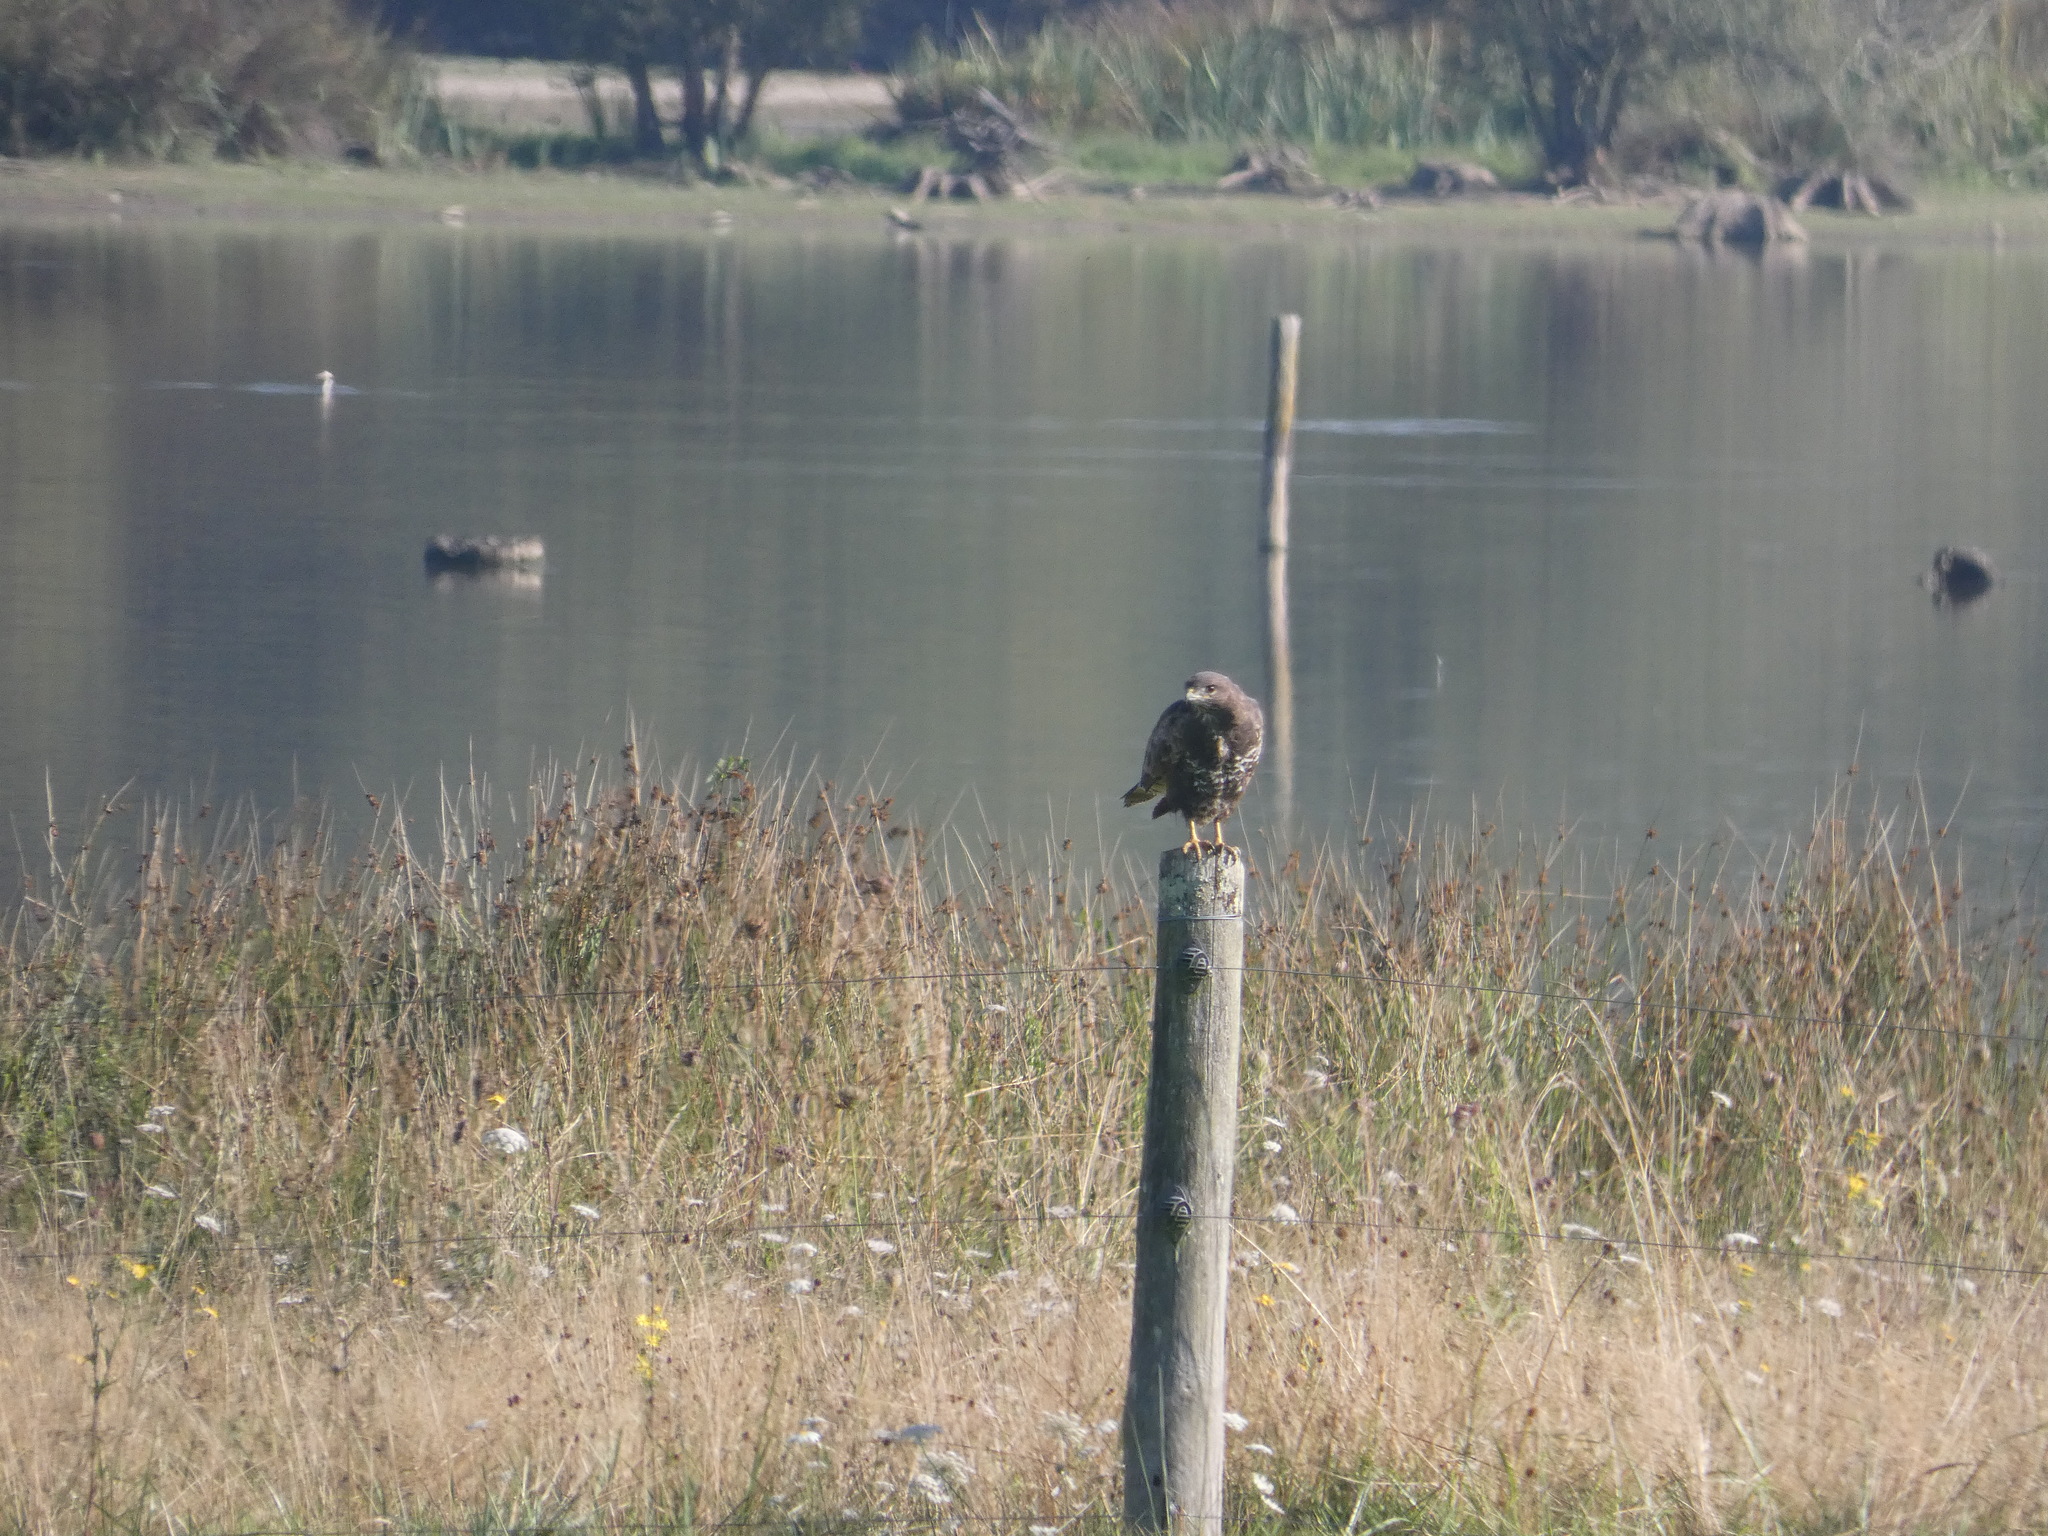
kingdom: Animalia
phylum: Chordata
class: Aves
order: Accipitriformes
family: Accipitridae
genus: Buteo
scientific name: Buteo buteo
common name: Common buzzard
